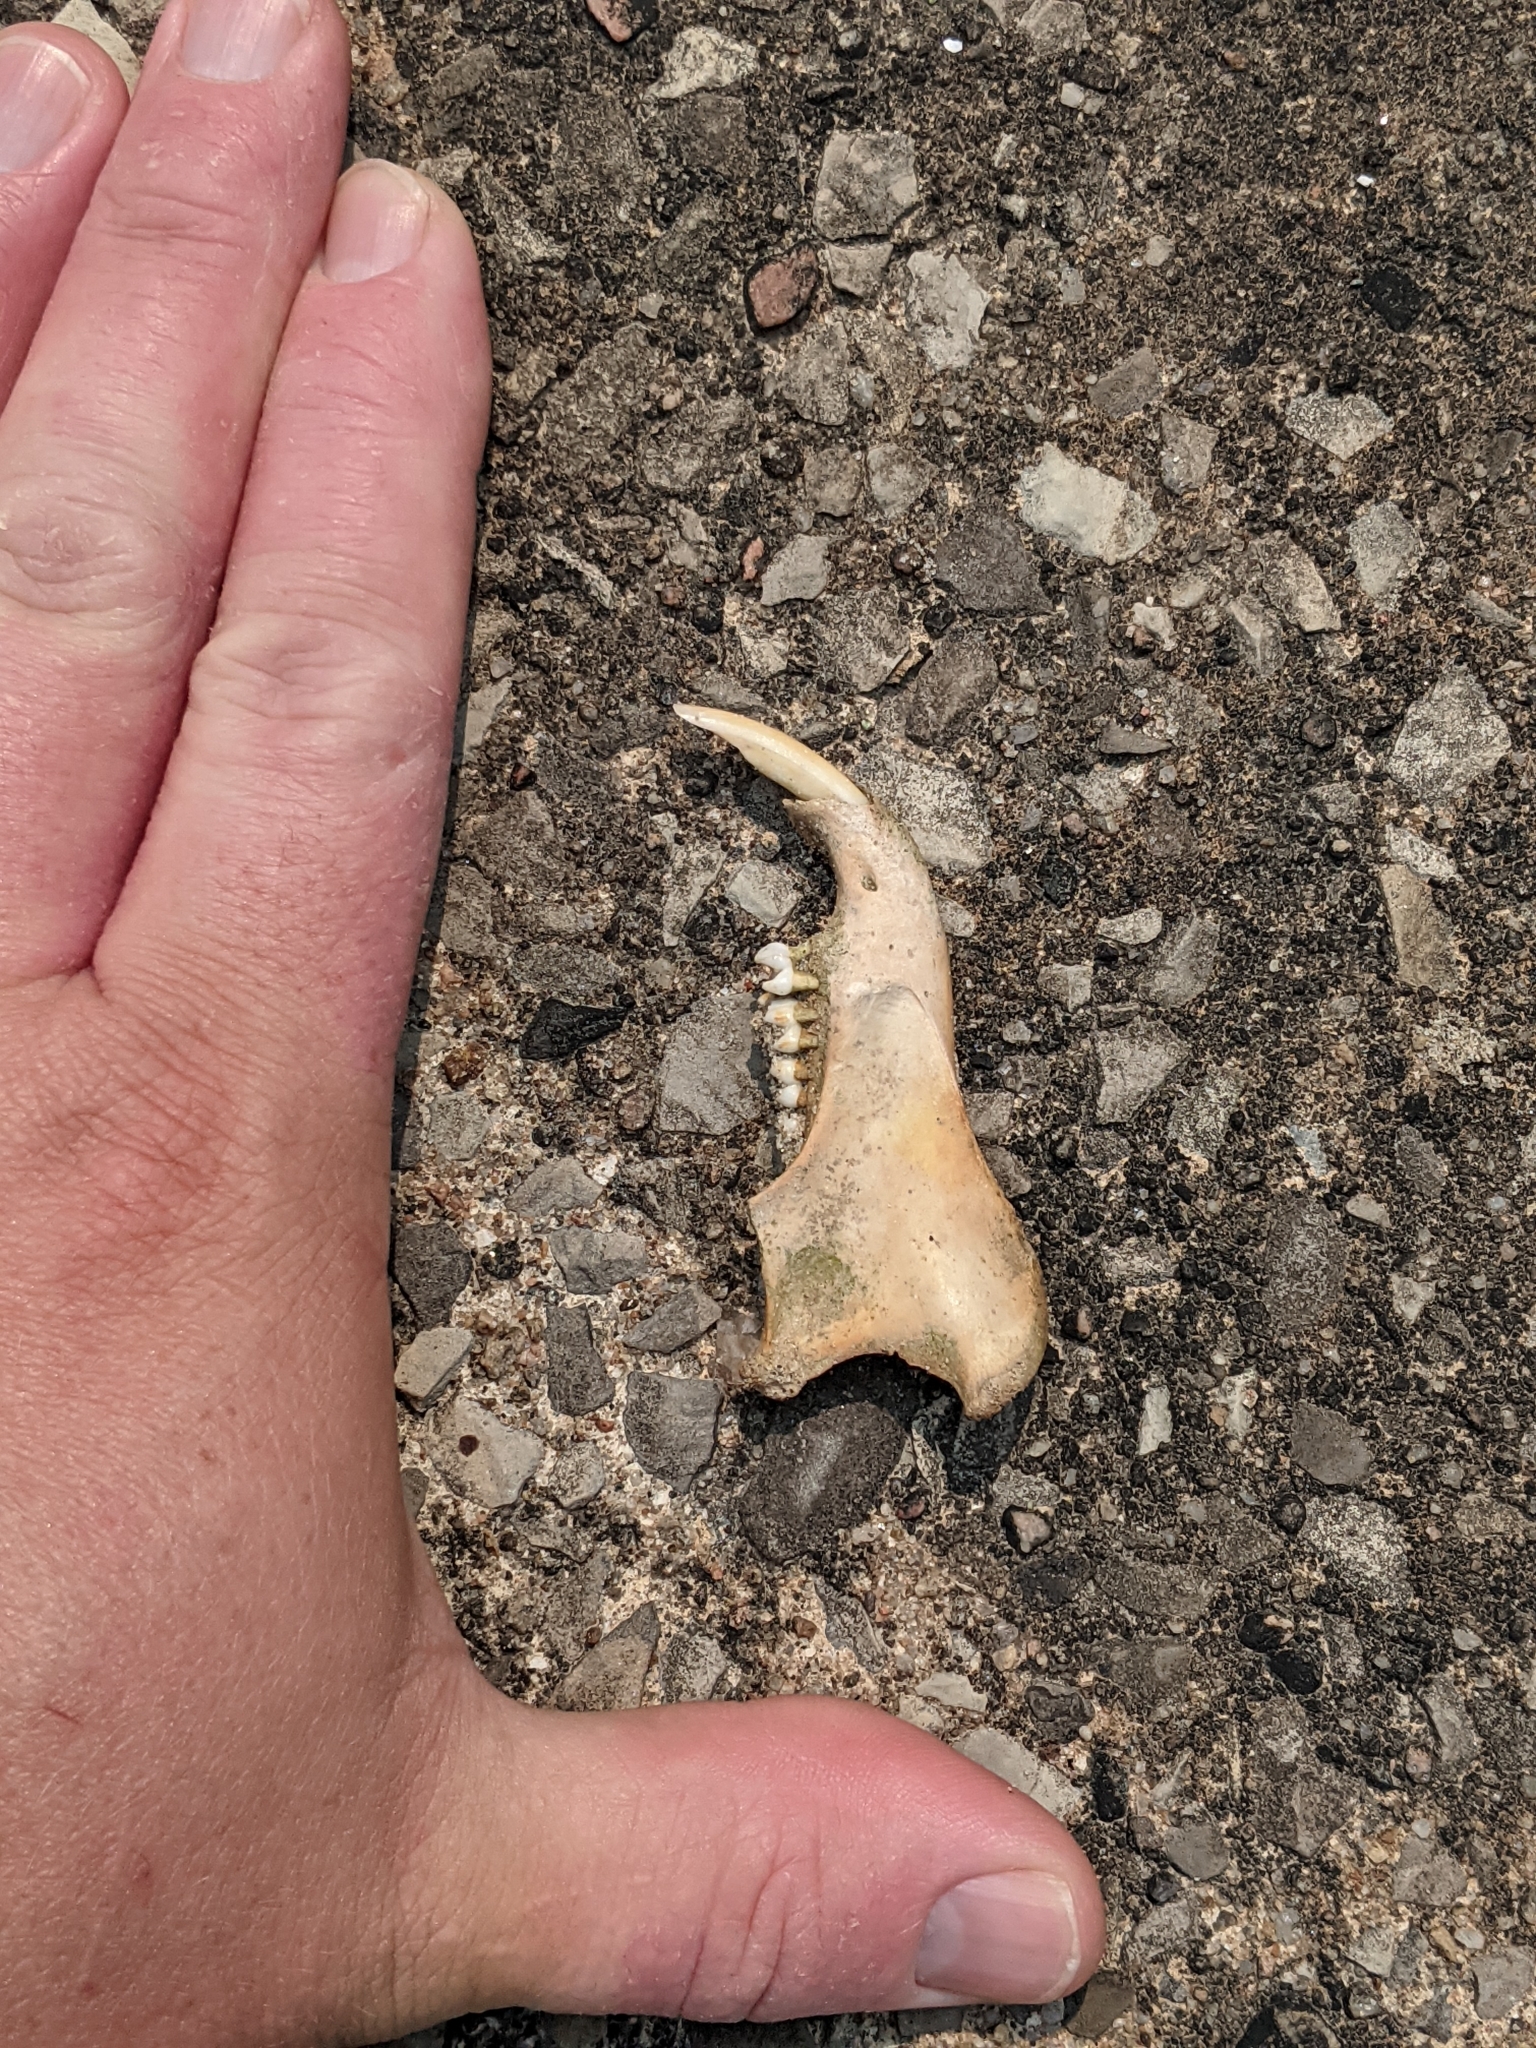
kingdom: Animalia
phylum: Chordata
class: Mammalia
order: Rodentia
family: Sciuridae
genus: Marmota
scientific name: Marmota monax
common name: Groundhog
